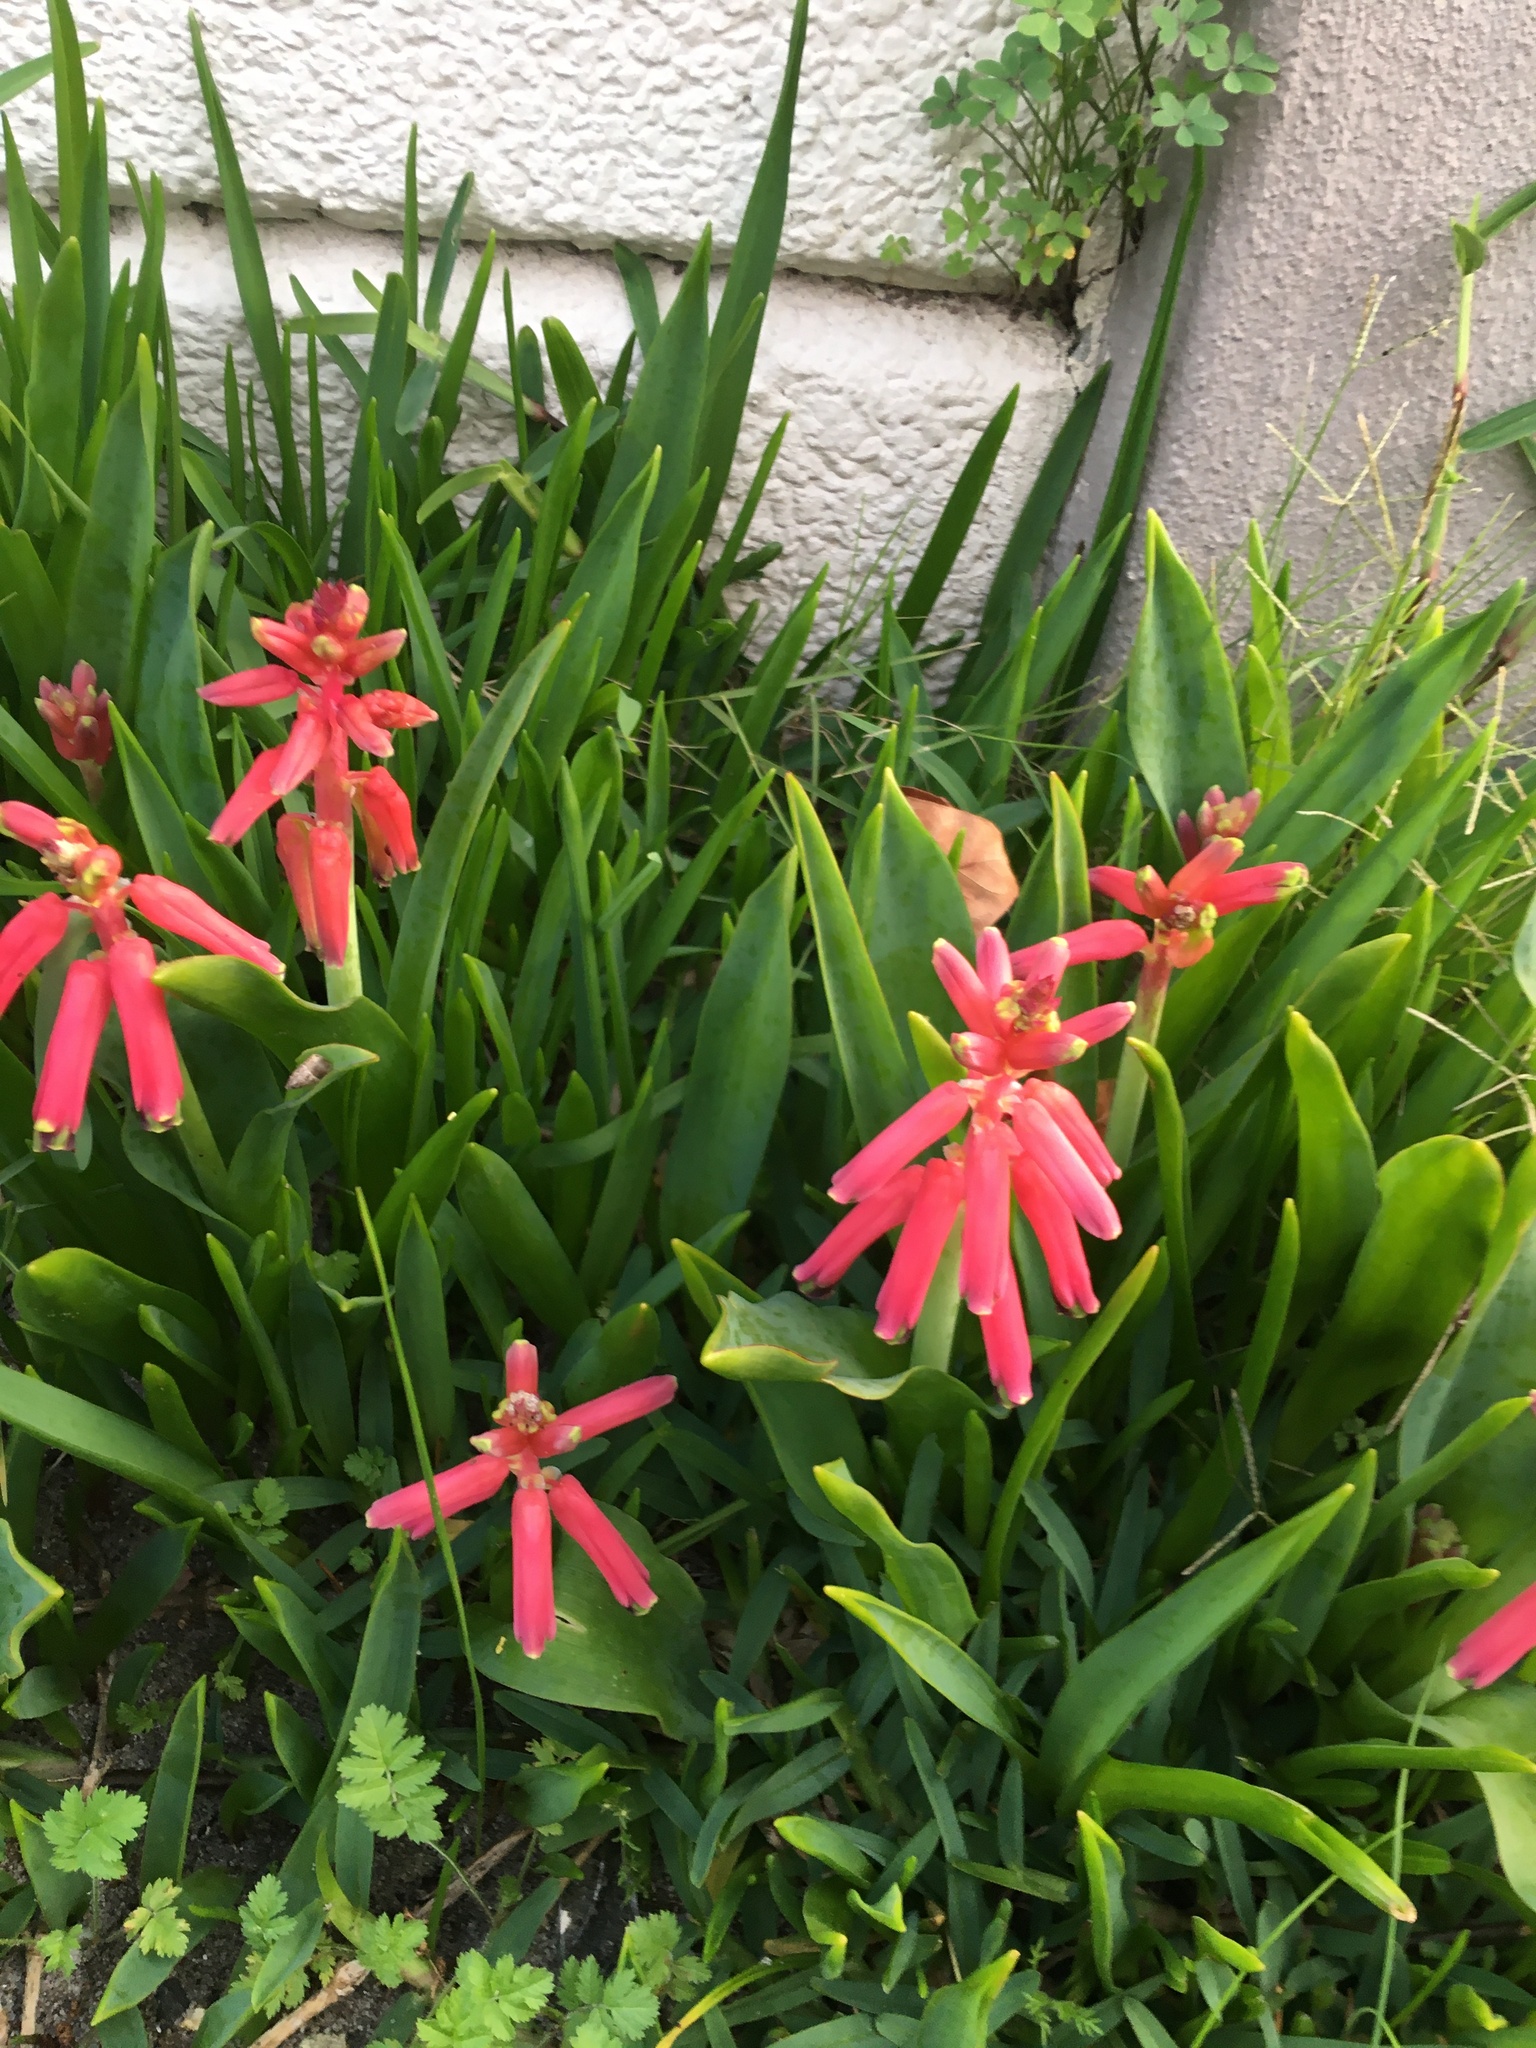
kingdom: Plantae
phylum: Tracheophyta
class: Liliopsida
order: Asparagales
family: Asparagaceae
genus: Lachenalia
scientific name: Lachenalia bulbifera
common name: Red lachenalia
